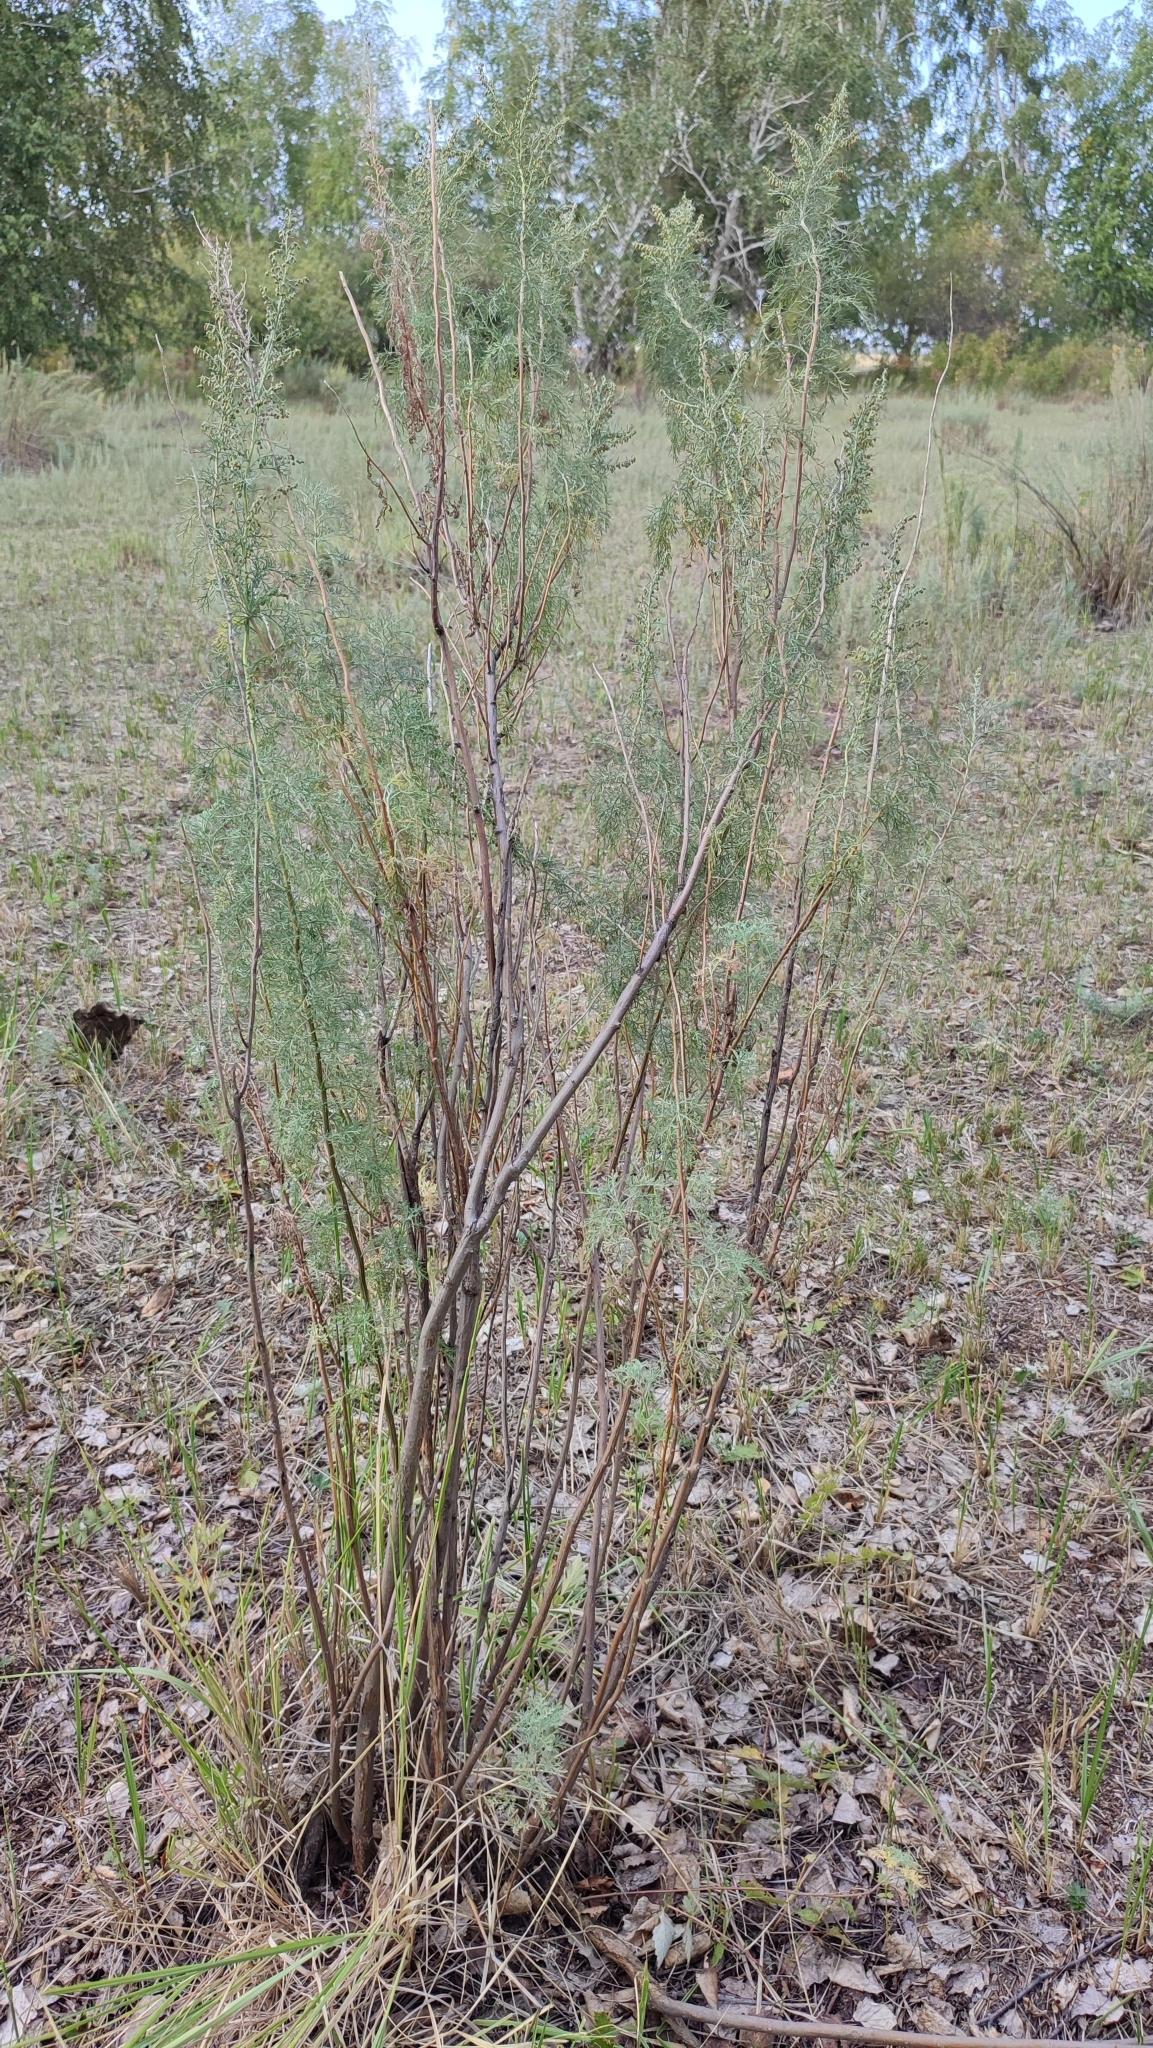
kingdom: Plantae
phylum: Tracheophyta
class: Magnoliopsida
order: Asterales
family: Asteraceae
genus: Artemisia
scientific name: Artemisia abrotanum
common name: Southernwood
